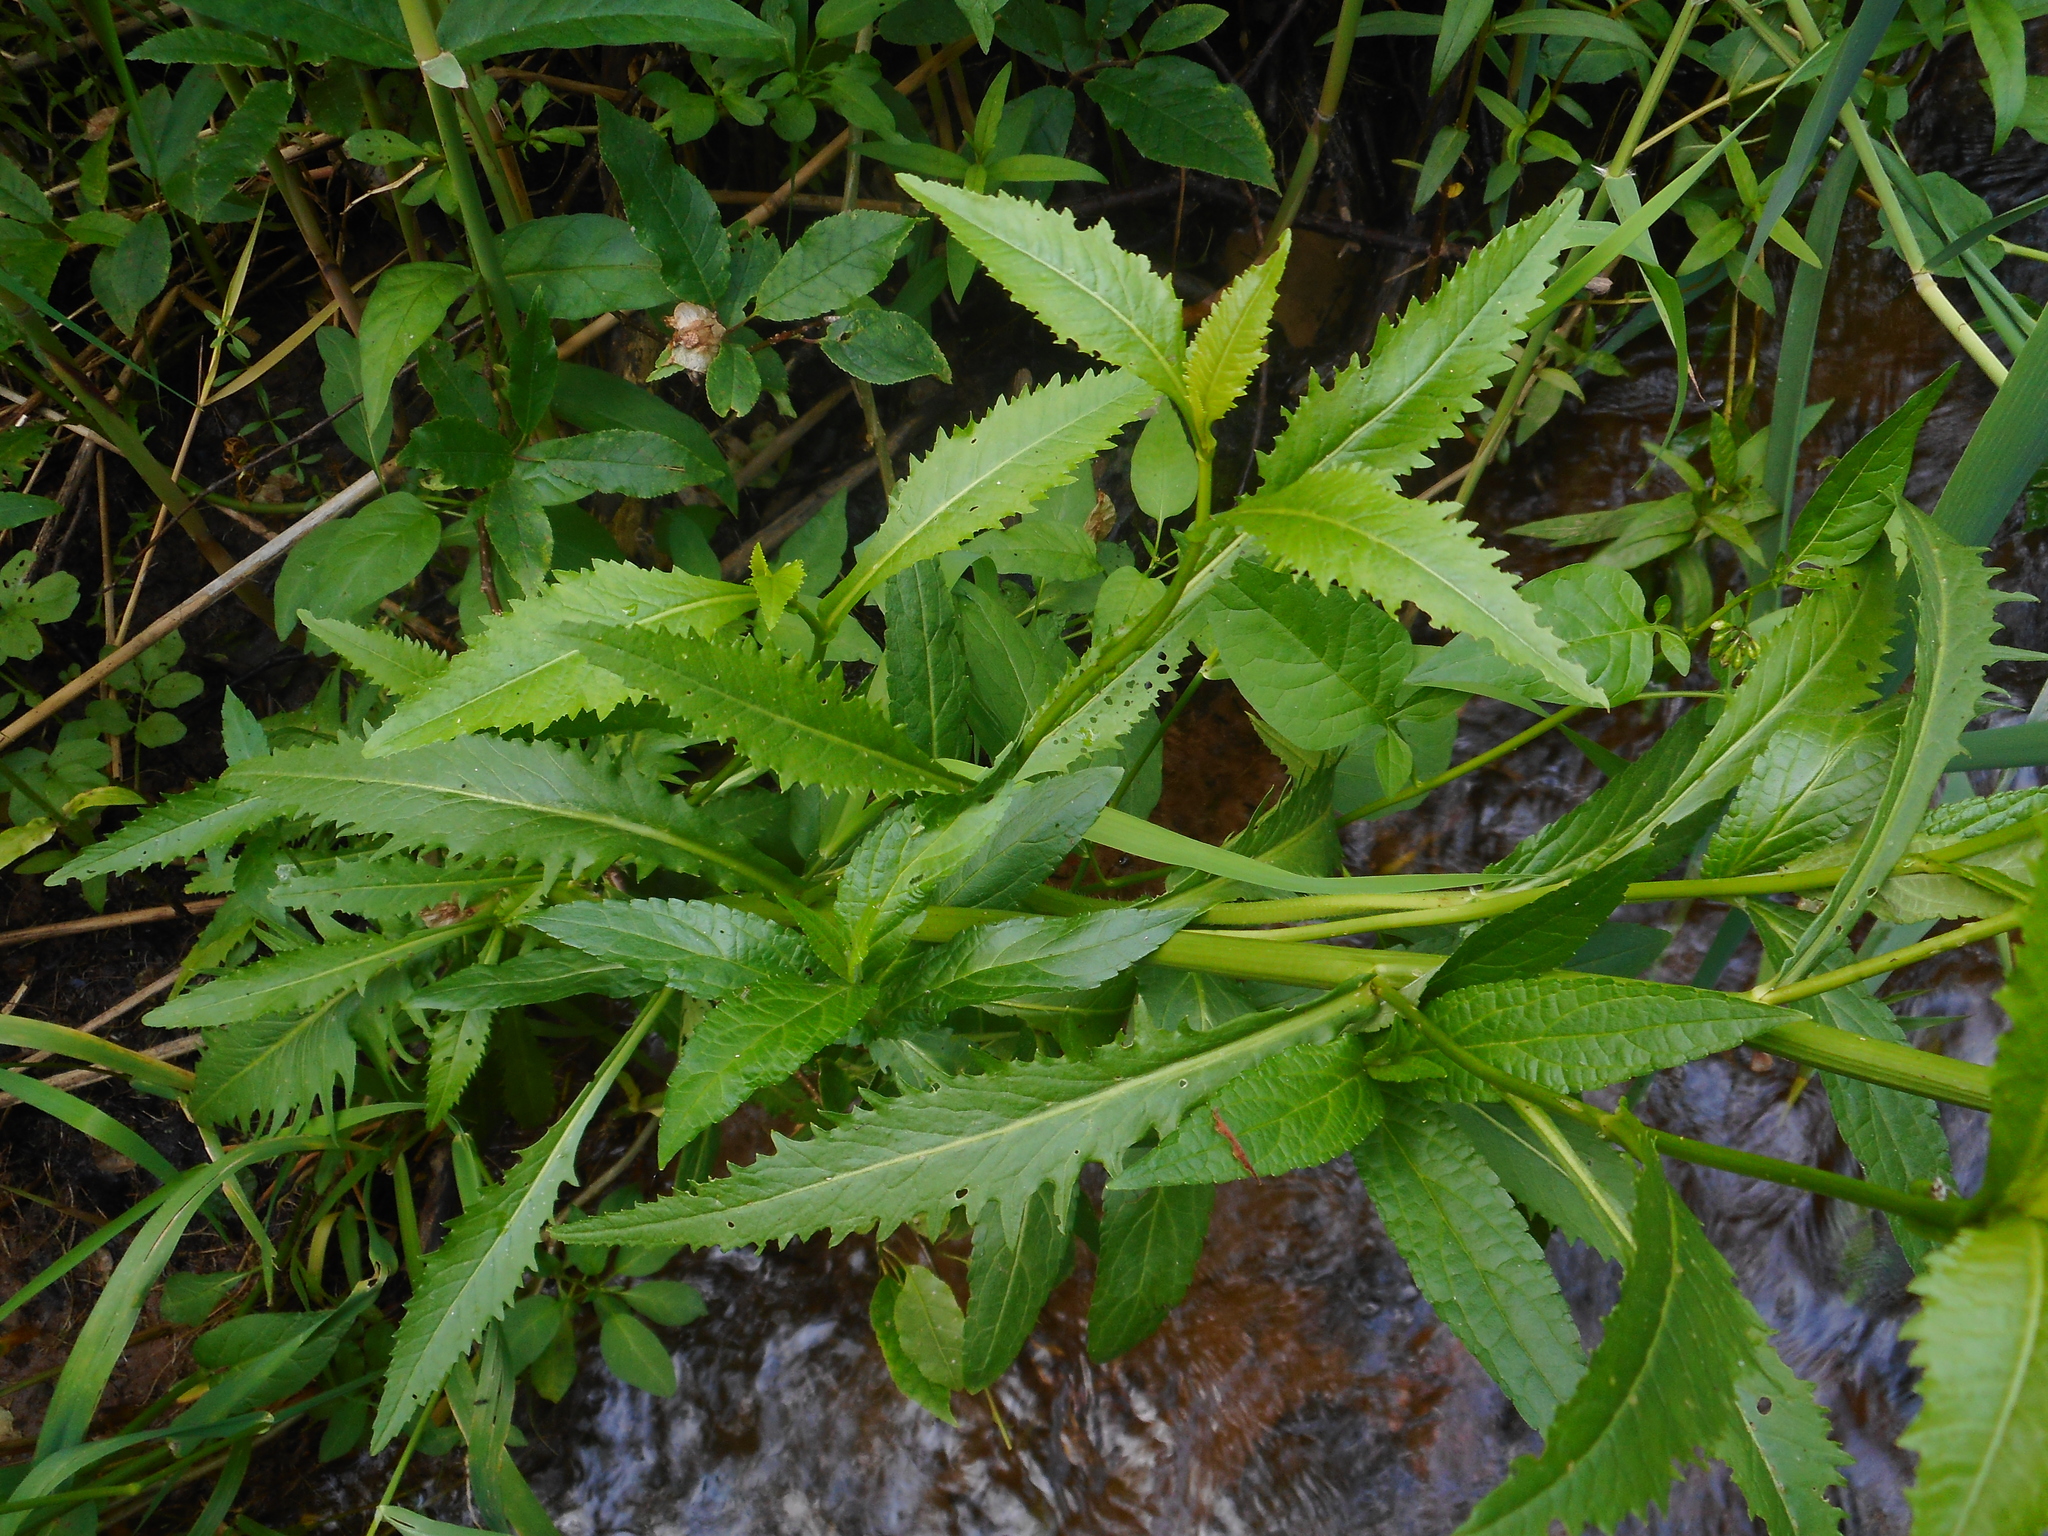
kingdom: Plantae
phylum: Tracheophyta
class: Magnoliopsida
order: Brassicales
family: Brassicaceae
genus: Rorippa
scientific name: Rorippa amphibia
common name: Great yellow-cress
